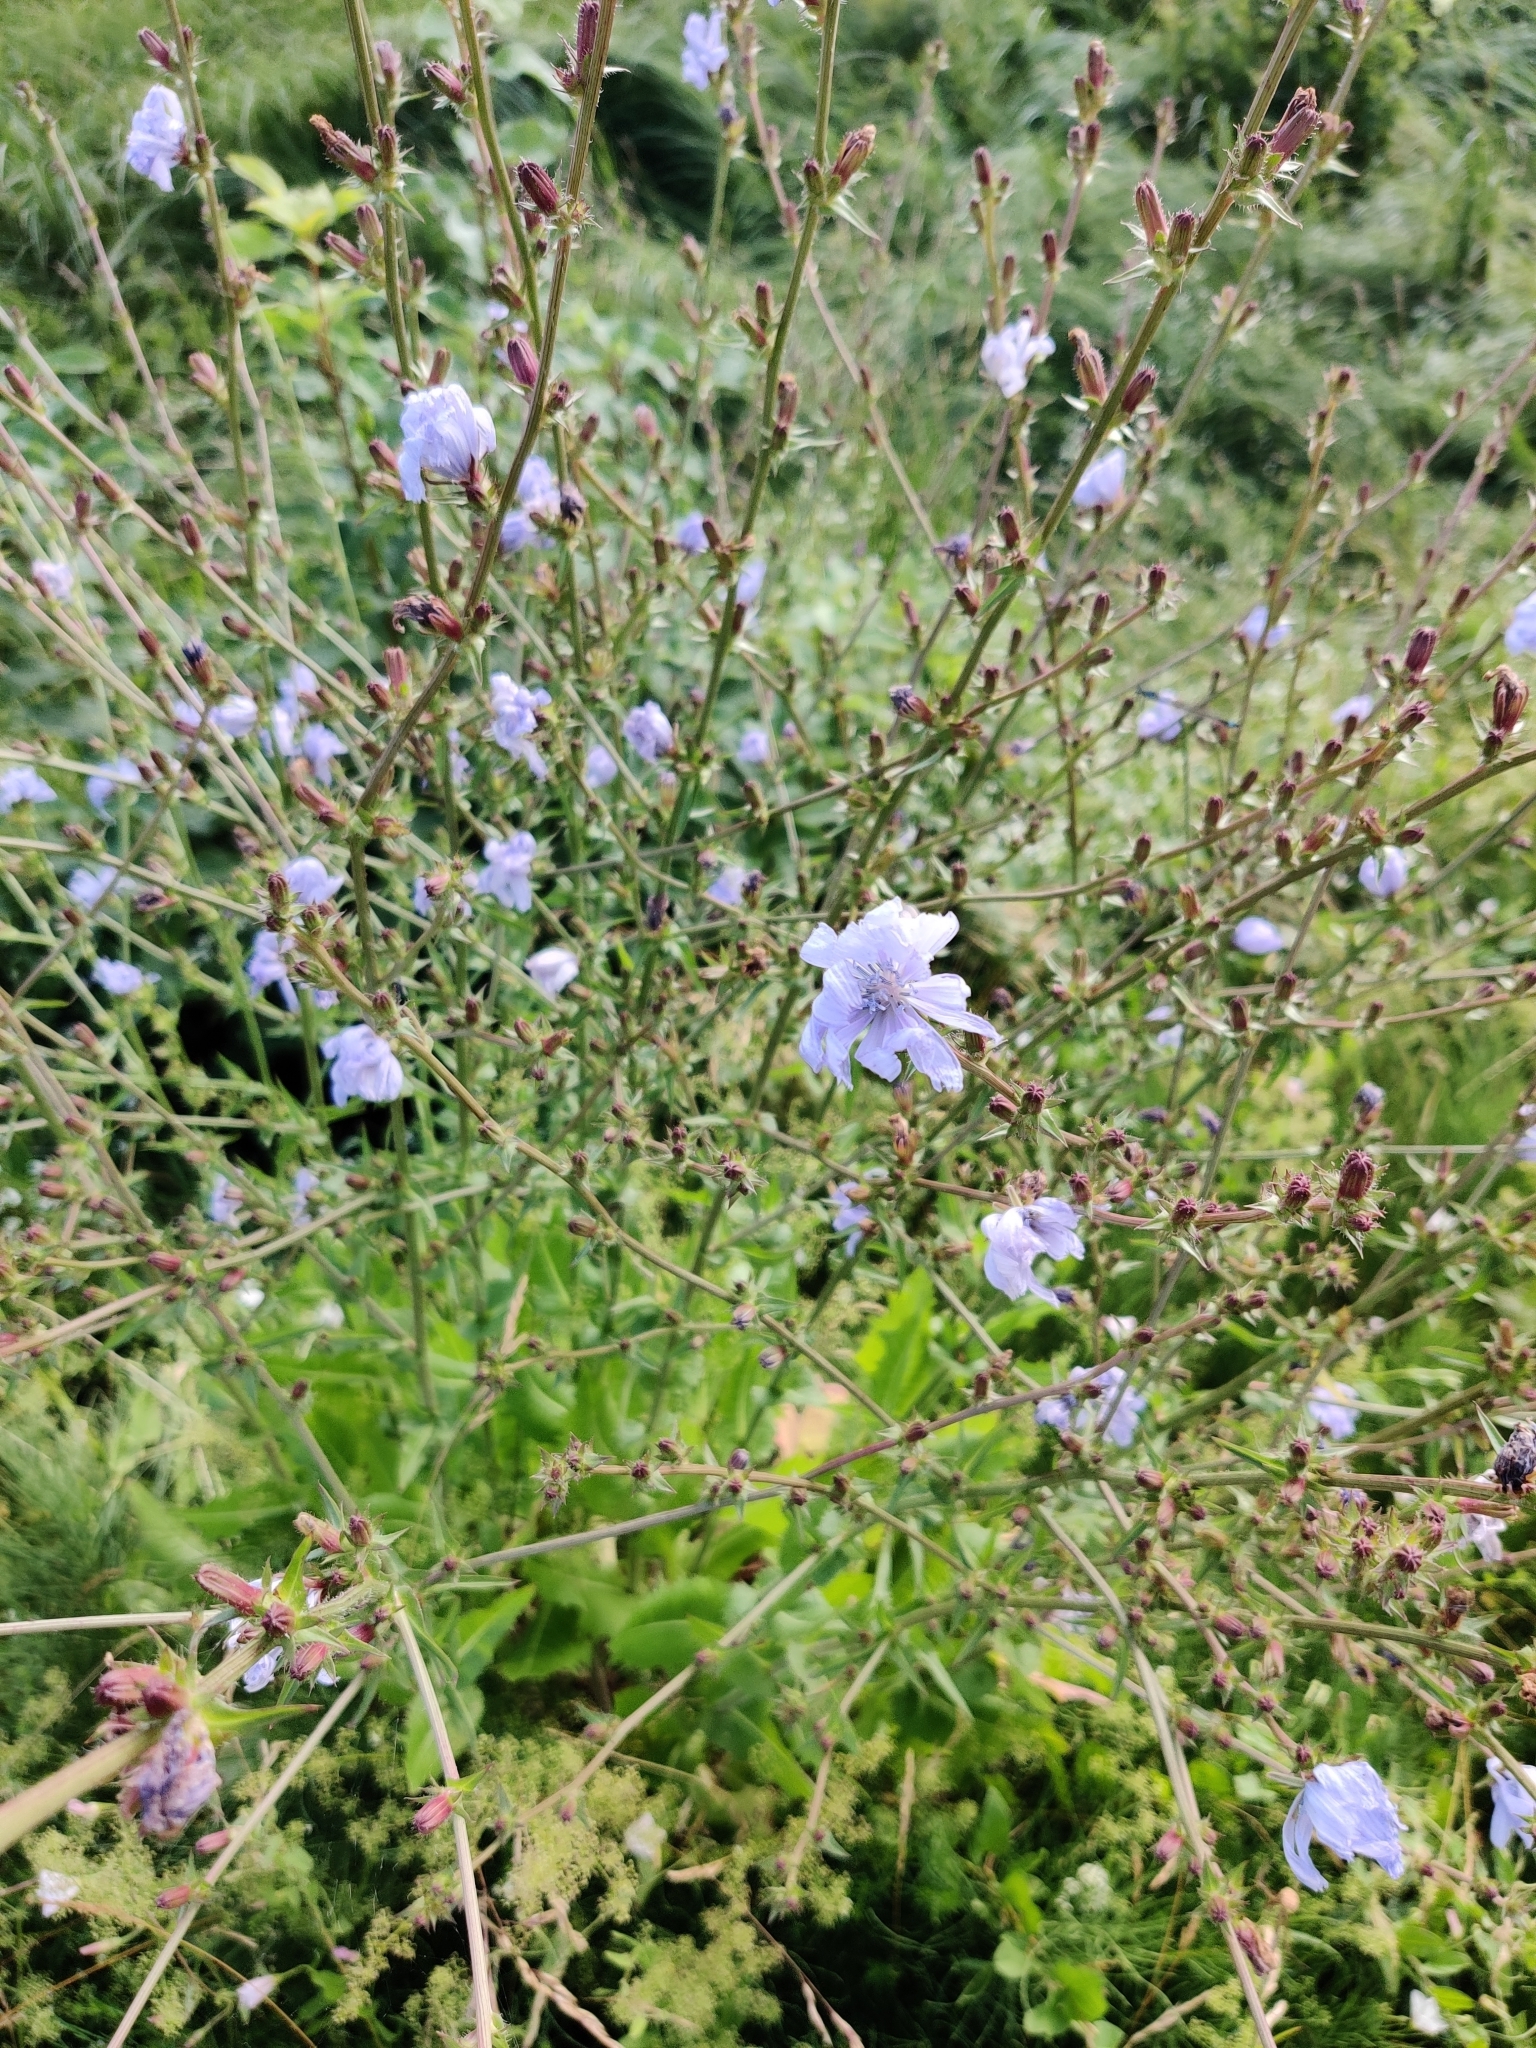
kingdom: Plantae
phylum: Tracheophyta
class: Magnoliopsida
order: Asterales
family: Asteraceae
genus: Cichorium
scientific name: Cichorium intybus
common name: Chicory
